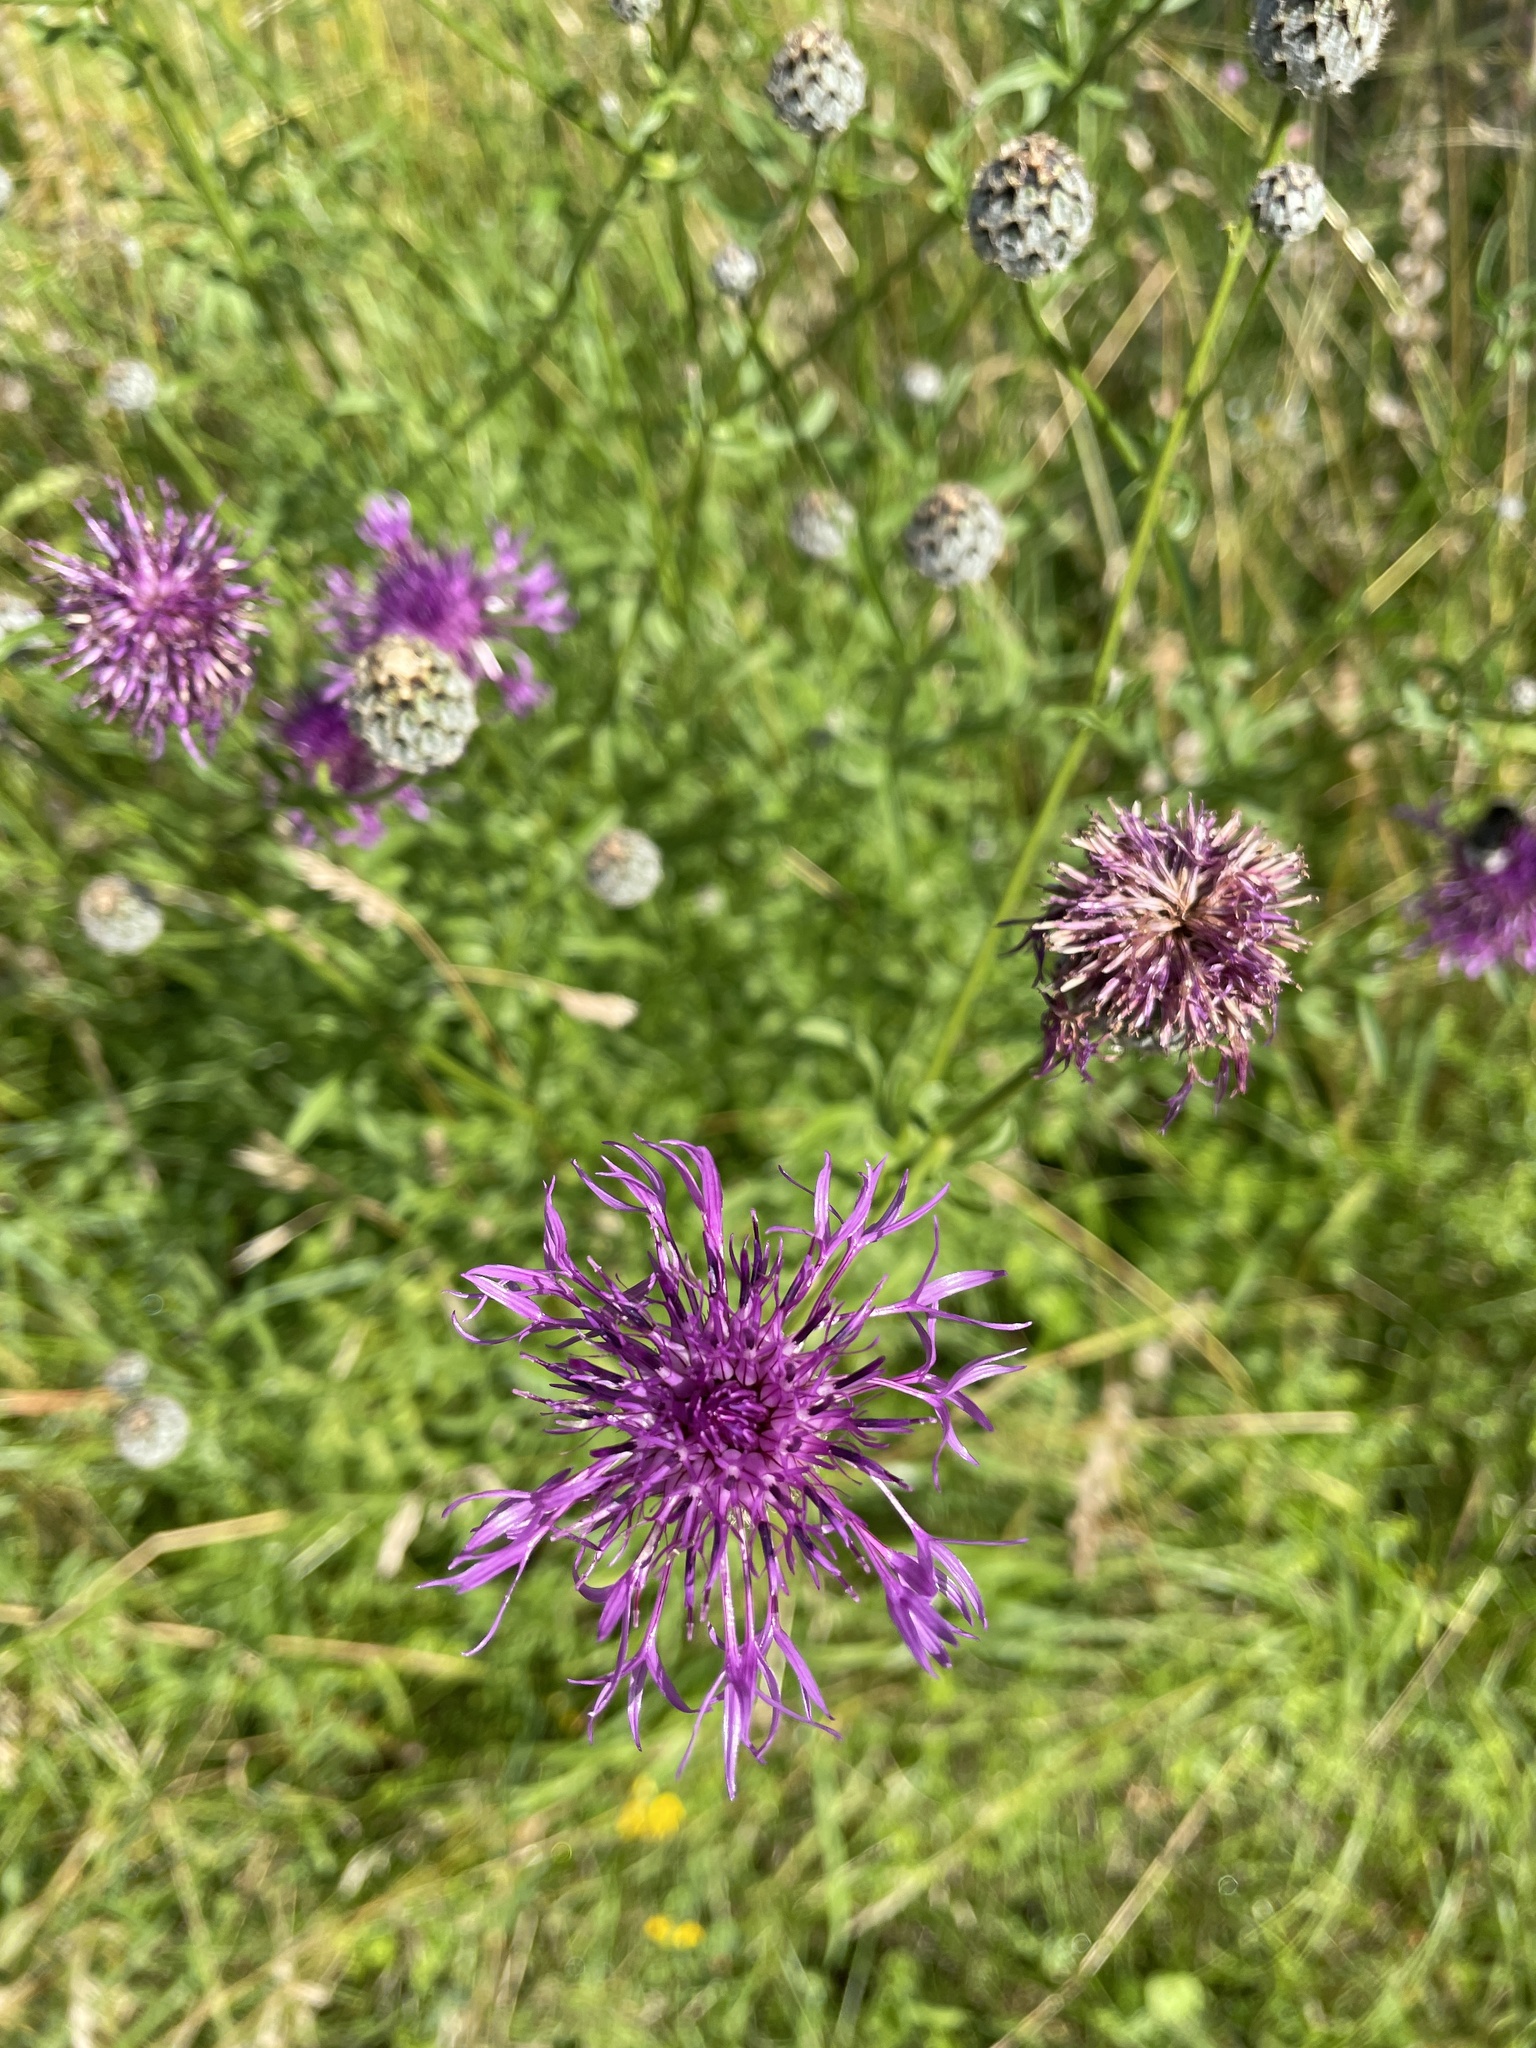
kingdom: Plantae
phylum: Tracheophyta
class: Magnoliopsida
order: Asterales
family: Asteraceae
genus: Centaurea
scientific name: Centaurea scabiosa
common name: Greater knapweed
